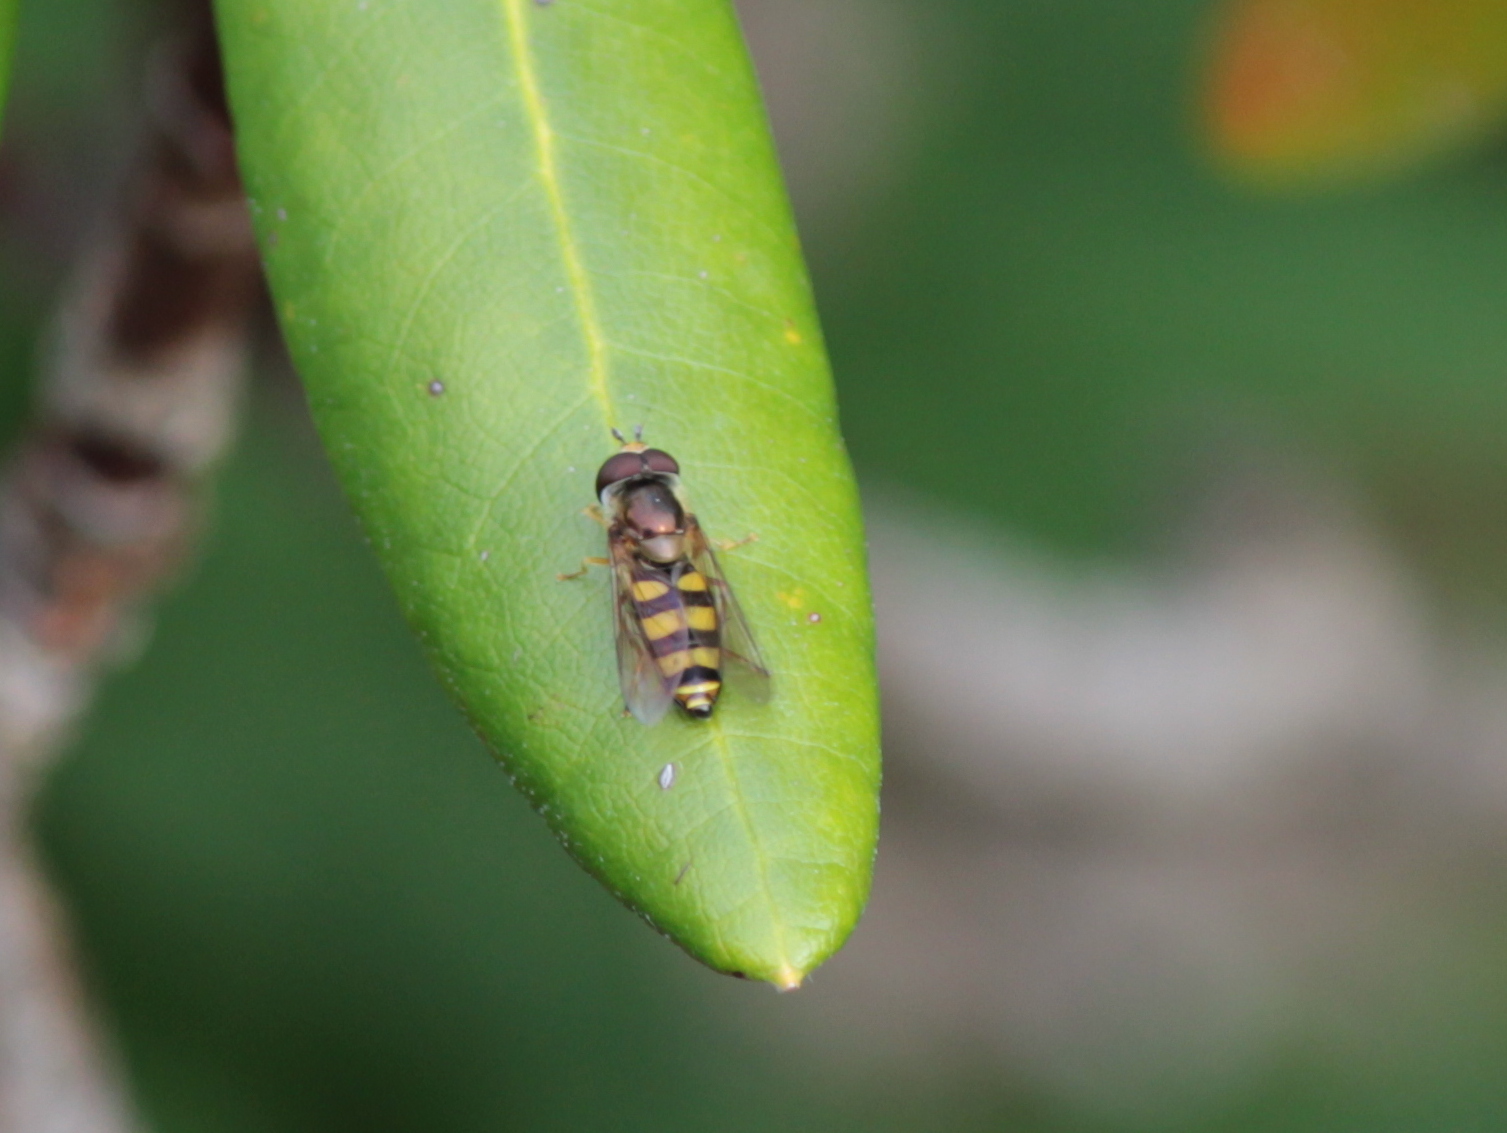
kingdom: Animalia
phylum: Arthropoda
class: Insecta
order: Diptera
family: Syrphidae
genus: Eupeodes
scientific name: Eupeodes
